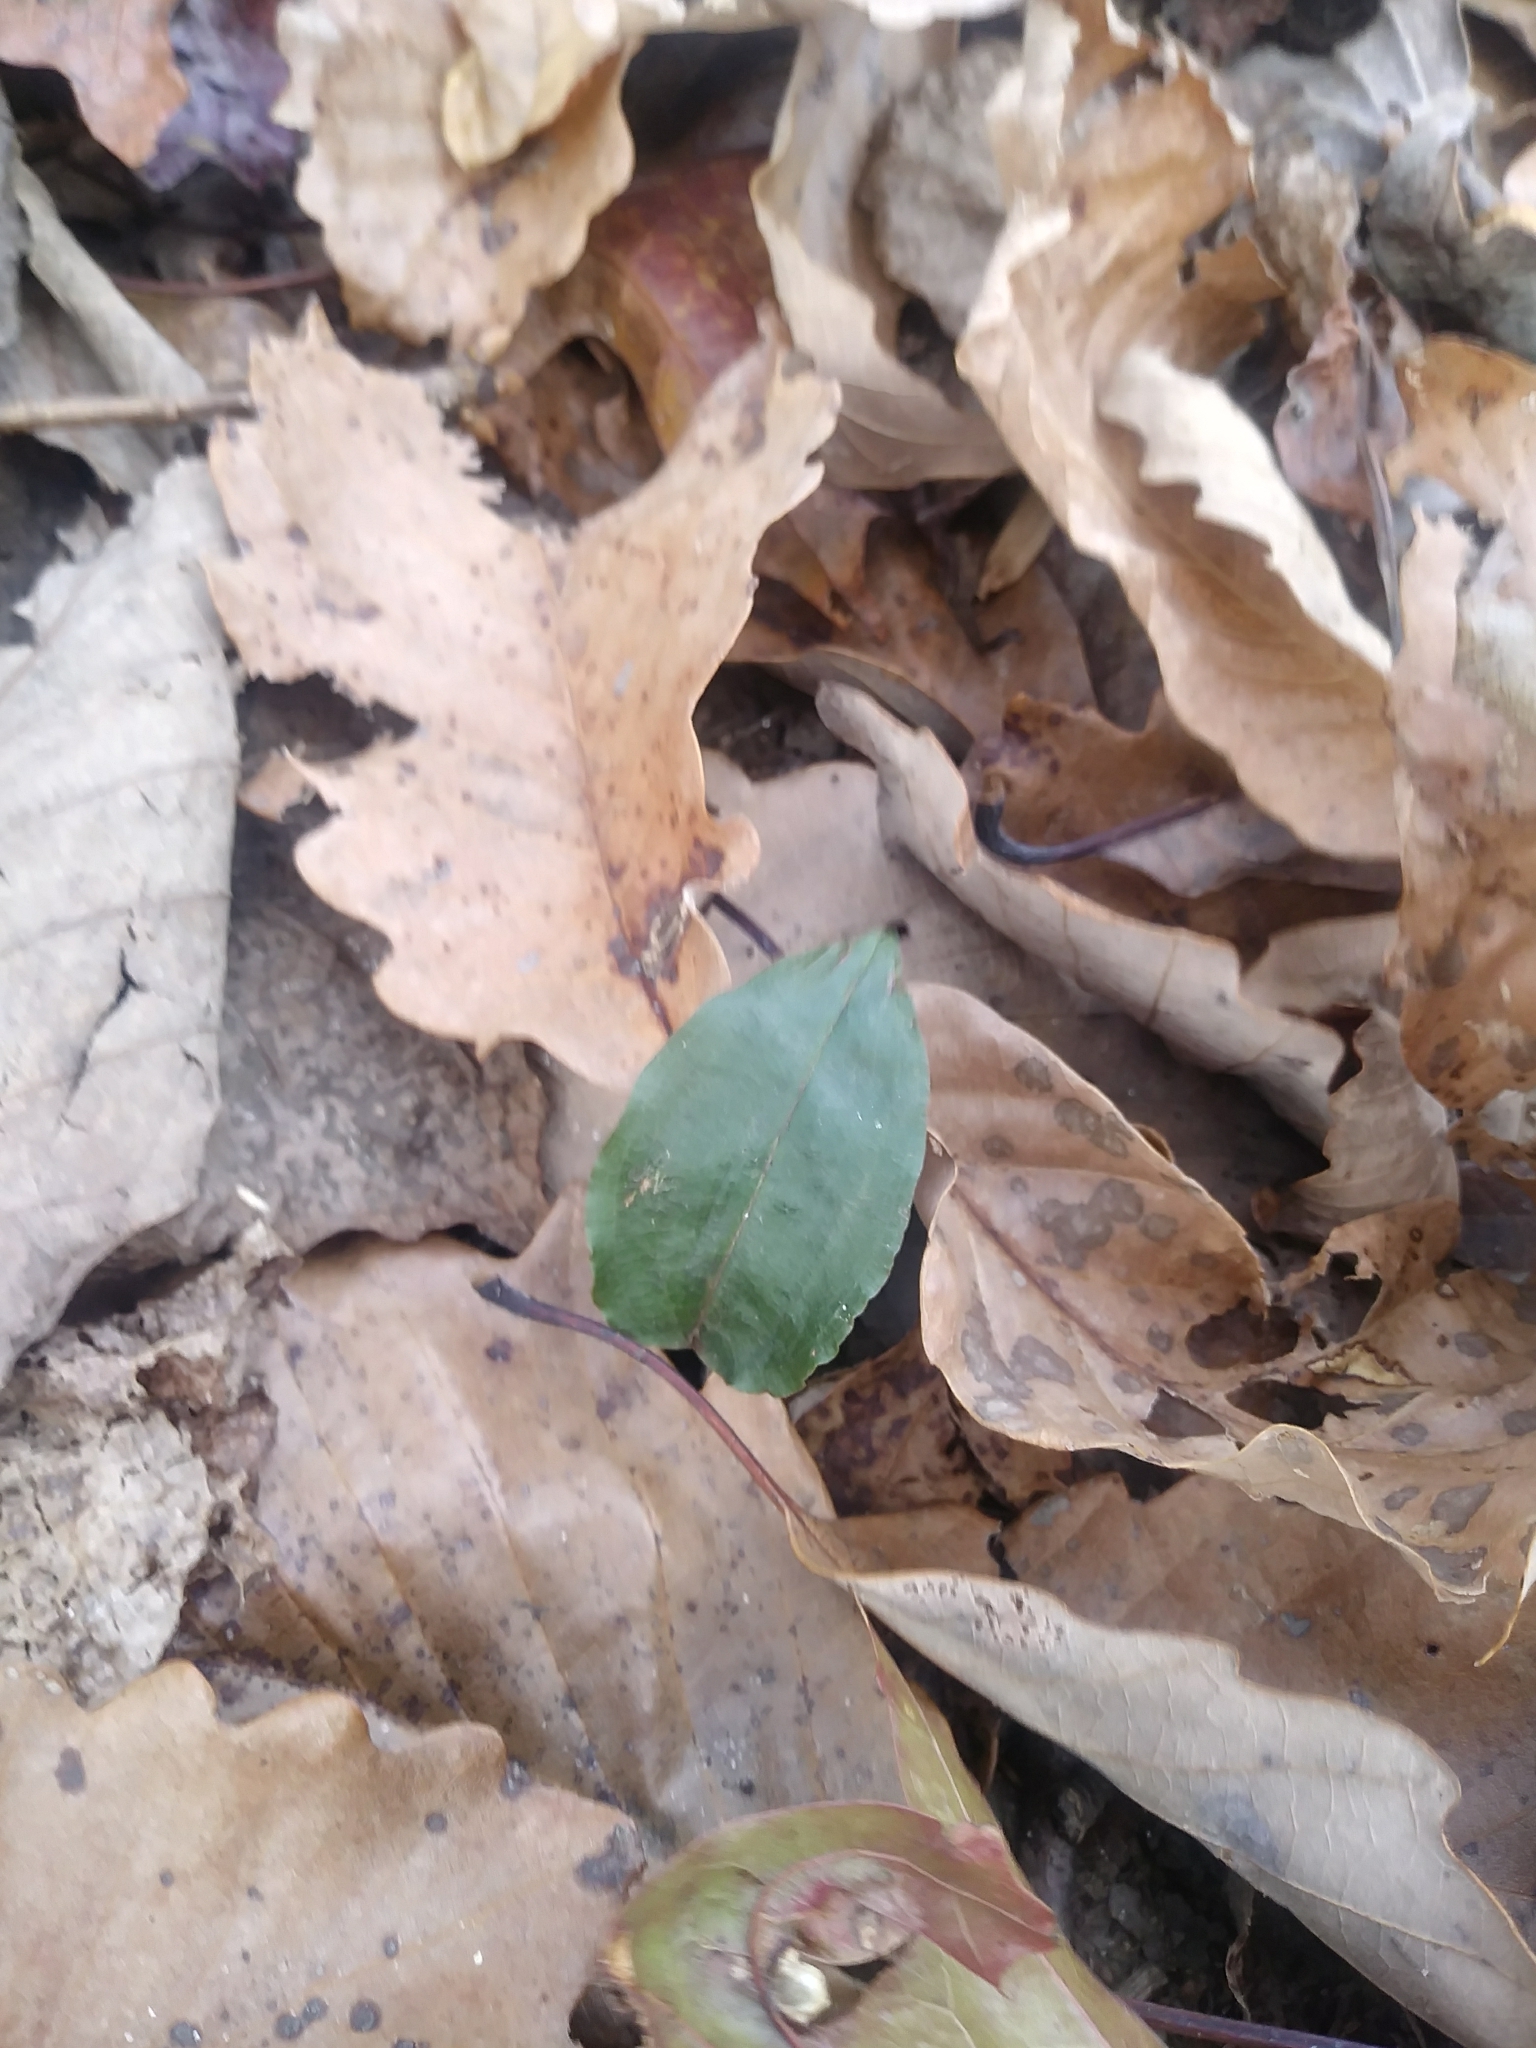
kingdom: Plantae
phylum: Tracheophyta
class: Liliopsida
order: Asparagales
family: Orchidaceae
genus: Tipularia
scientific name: Tipularia discolor
